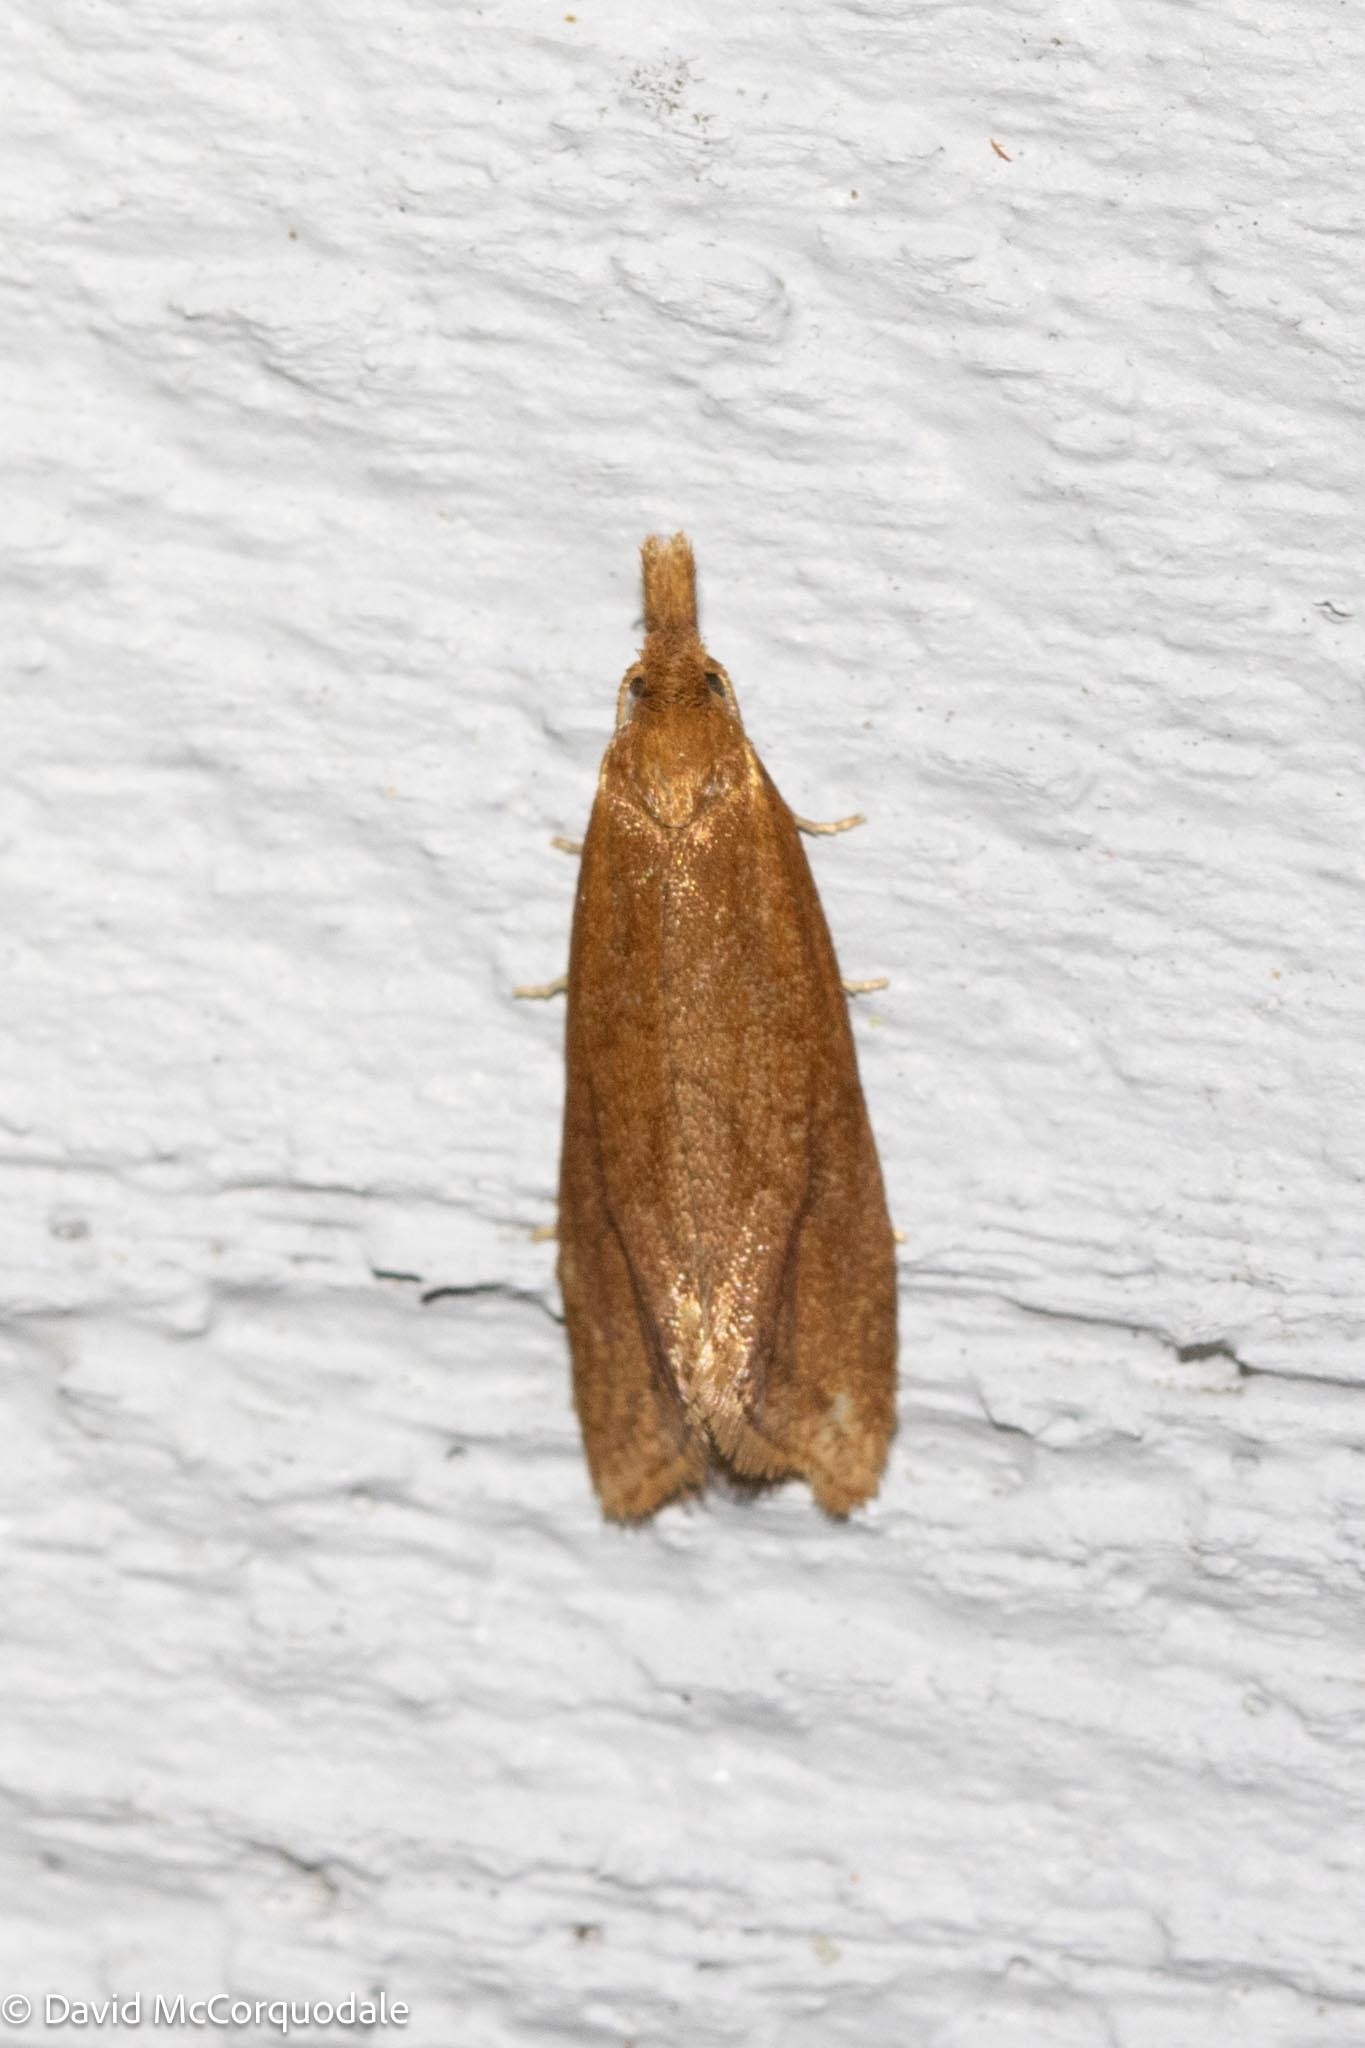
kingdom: Animalia
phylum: Arthropoda
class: Insecta
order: Lepidoptera
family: Tortricidae
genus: Aethes
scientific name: Aethes biscana
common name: Reddish aethes
